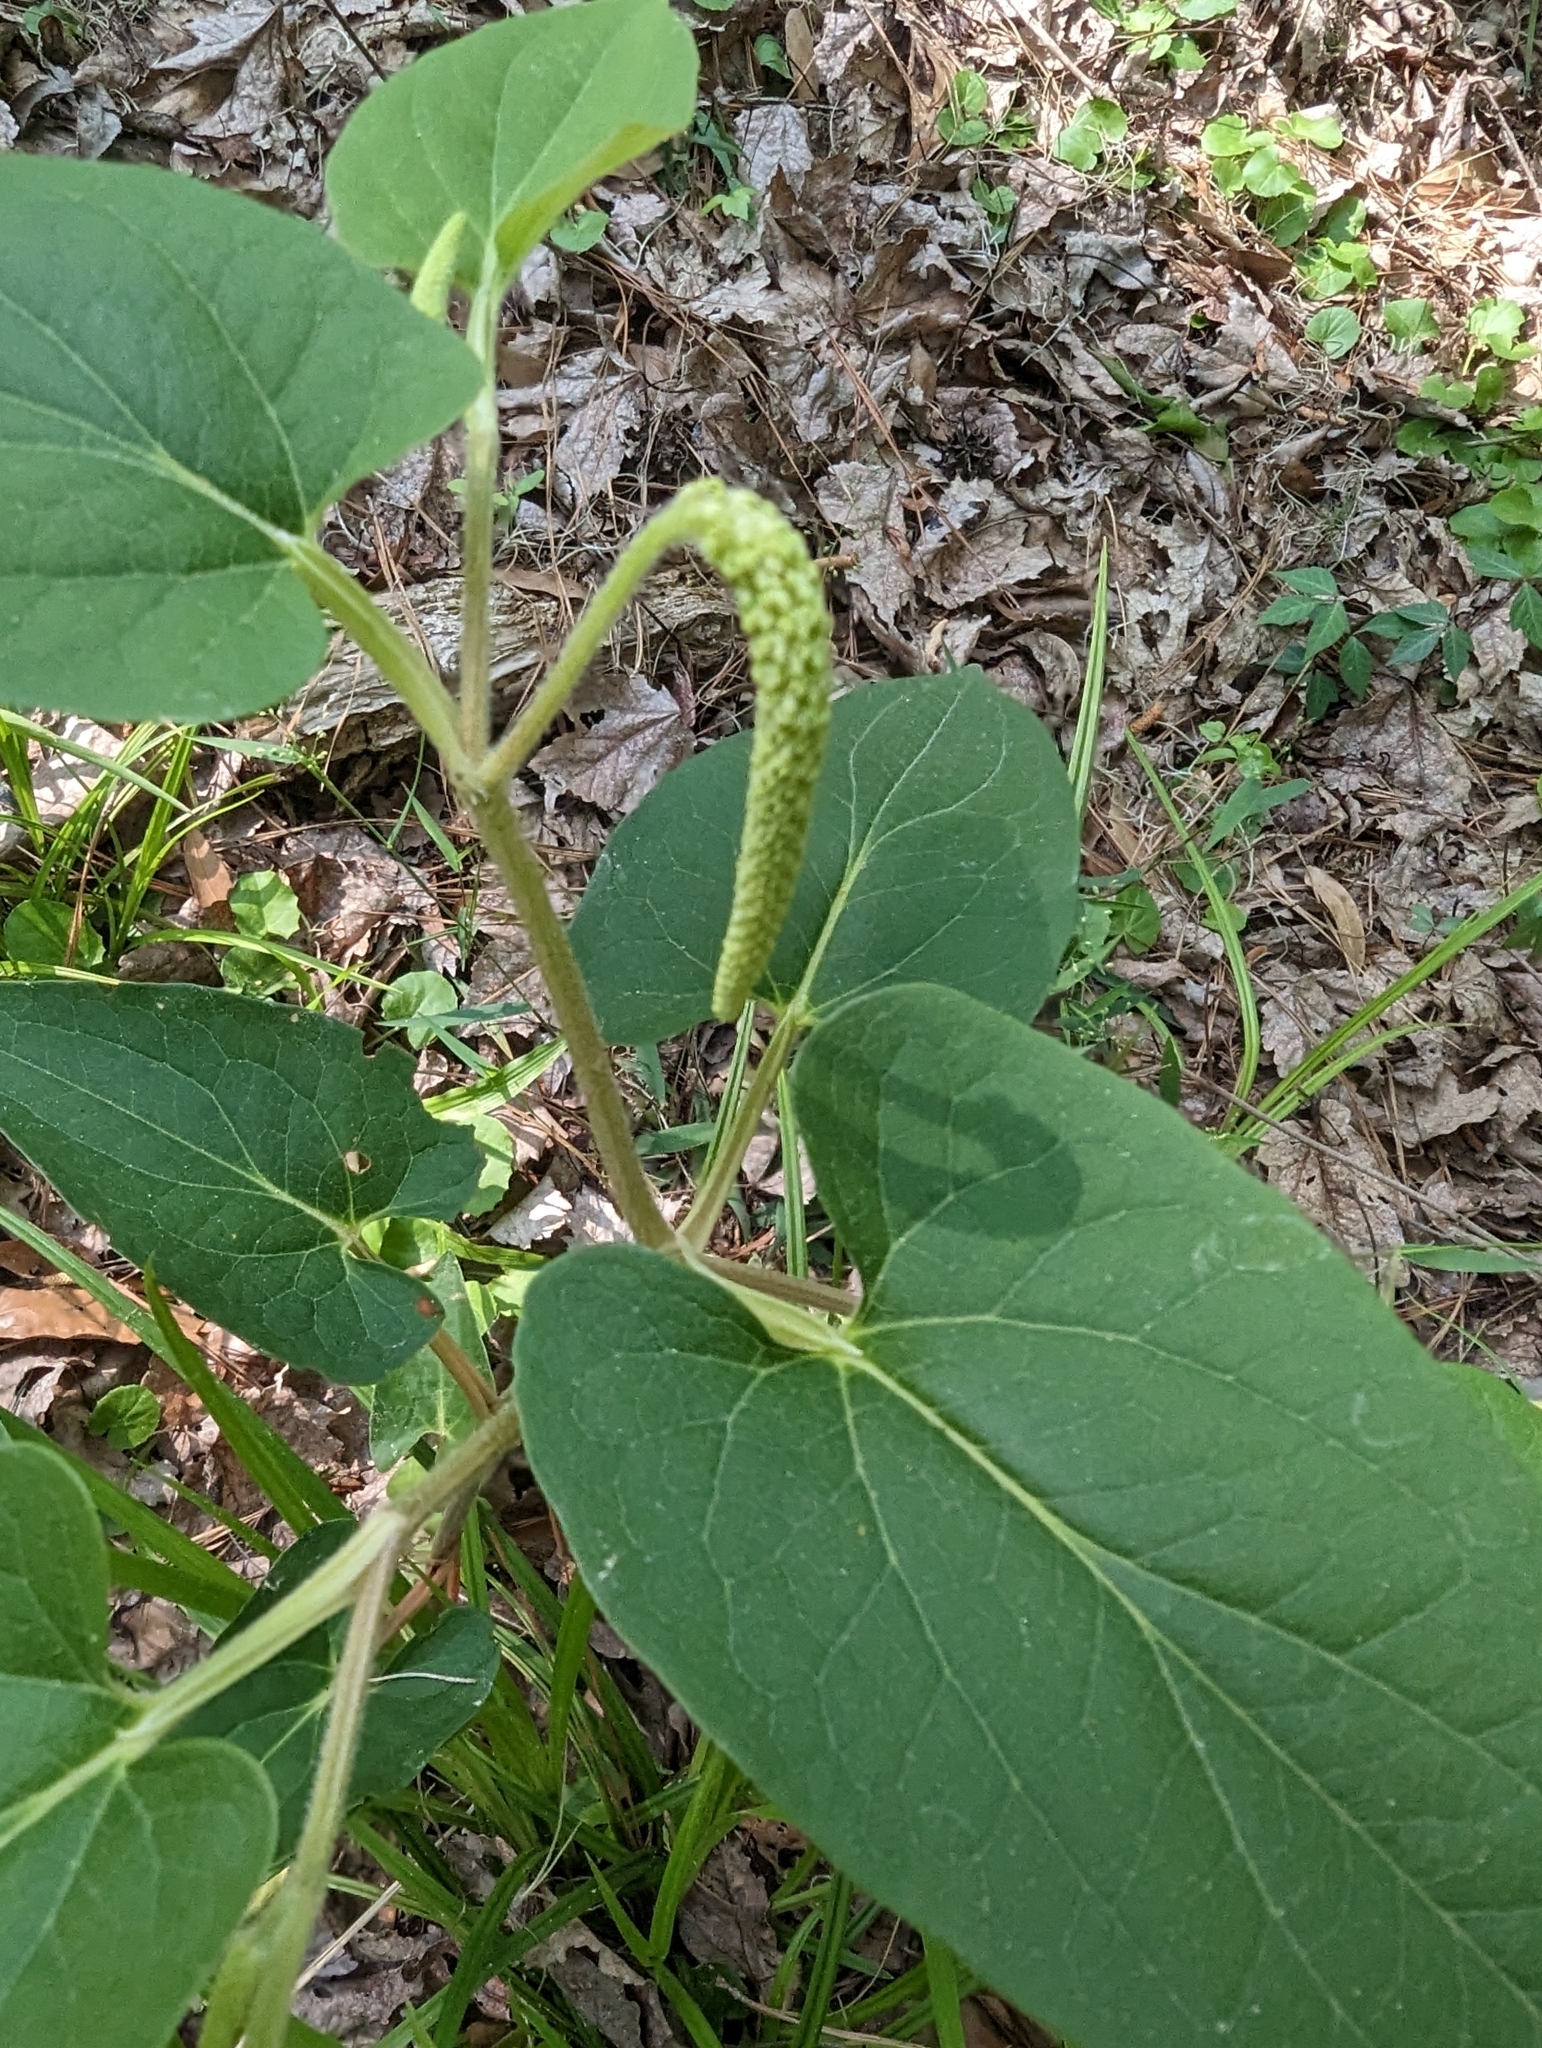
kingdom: Plantae
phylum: Tracheophyta
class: Magnoliopsida
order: Piperales
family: Saururaceae
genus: Saururus
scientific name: Saururus cernuus
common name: Lizard's-tail
